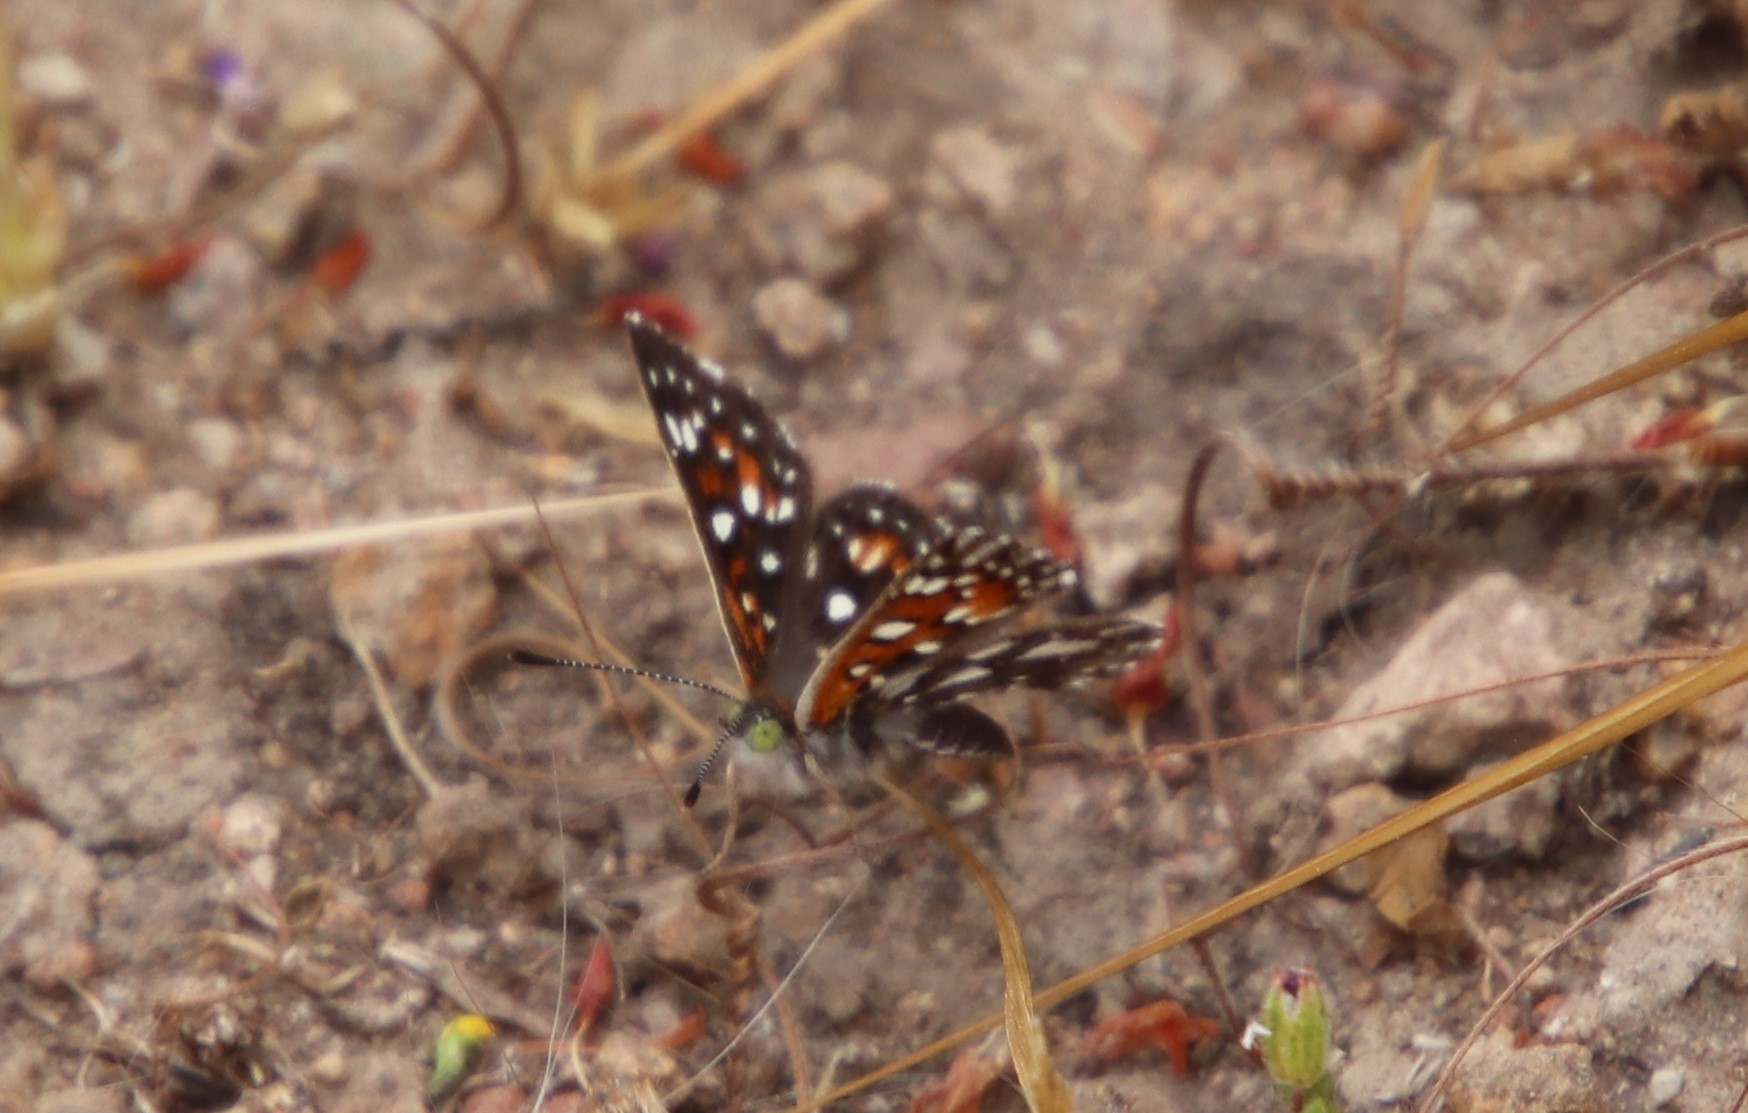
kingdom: Animalia
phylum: Arthropoda
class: Insecta
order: Lepidoptera
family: Riodinidae
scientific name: Riodinidae
